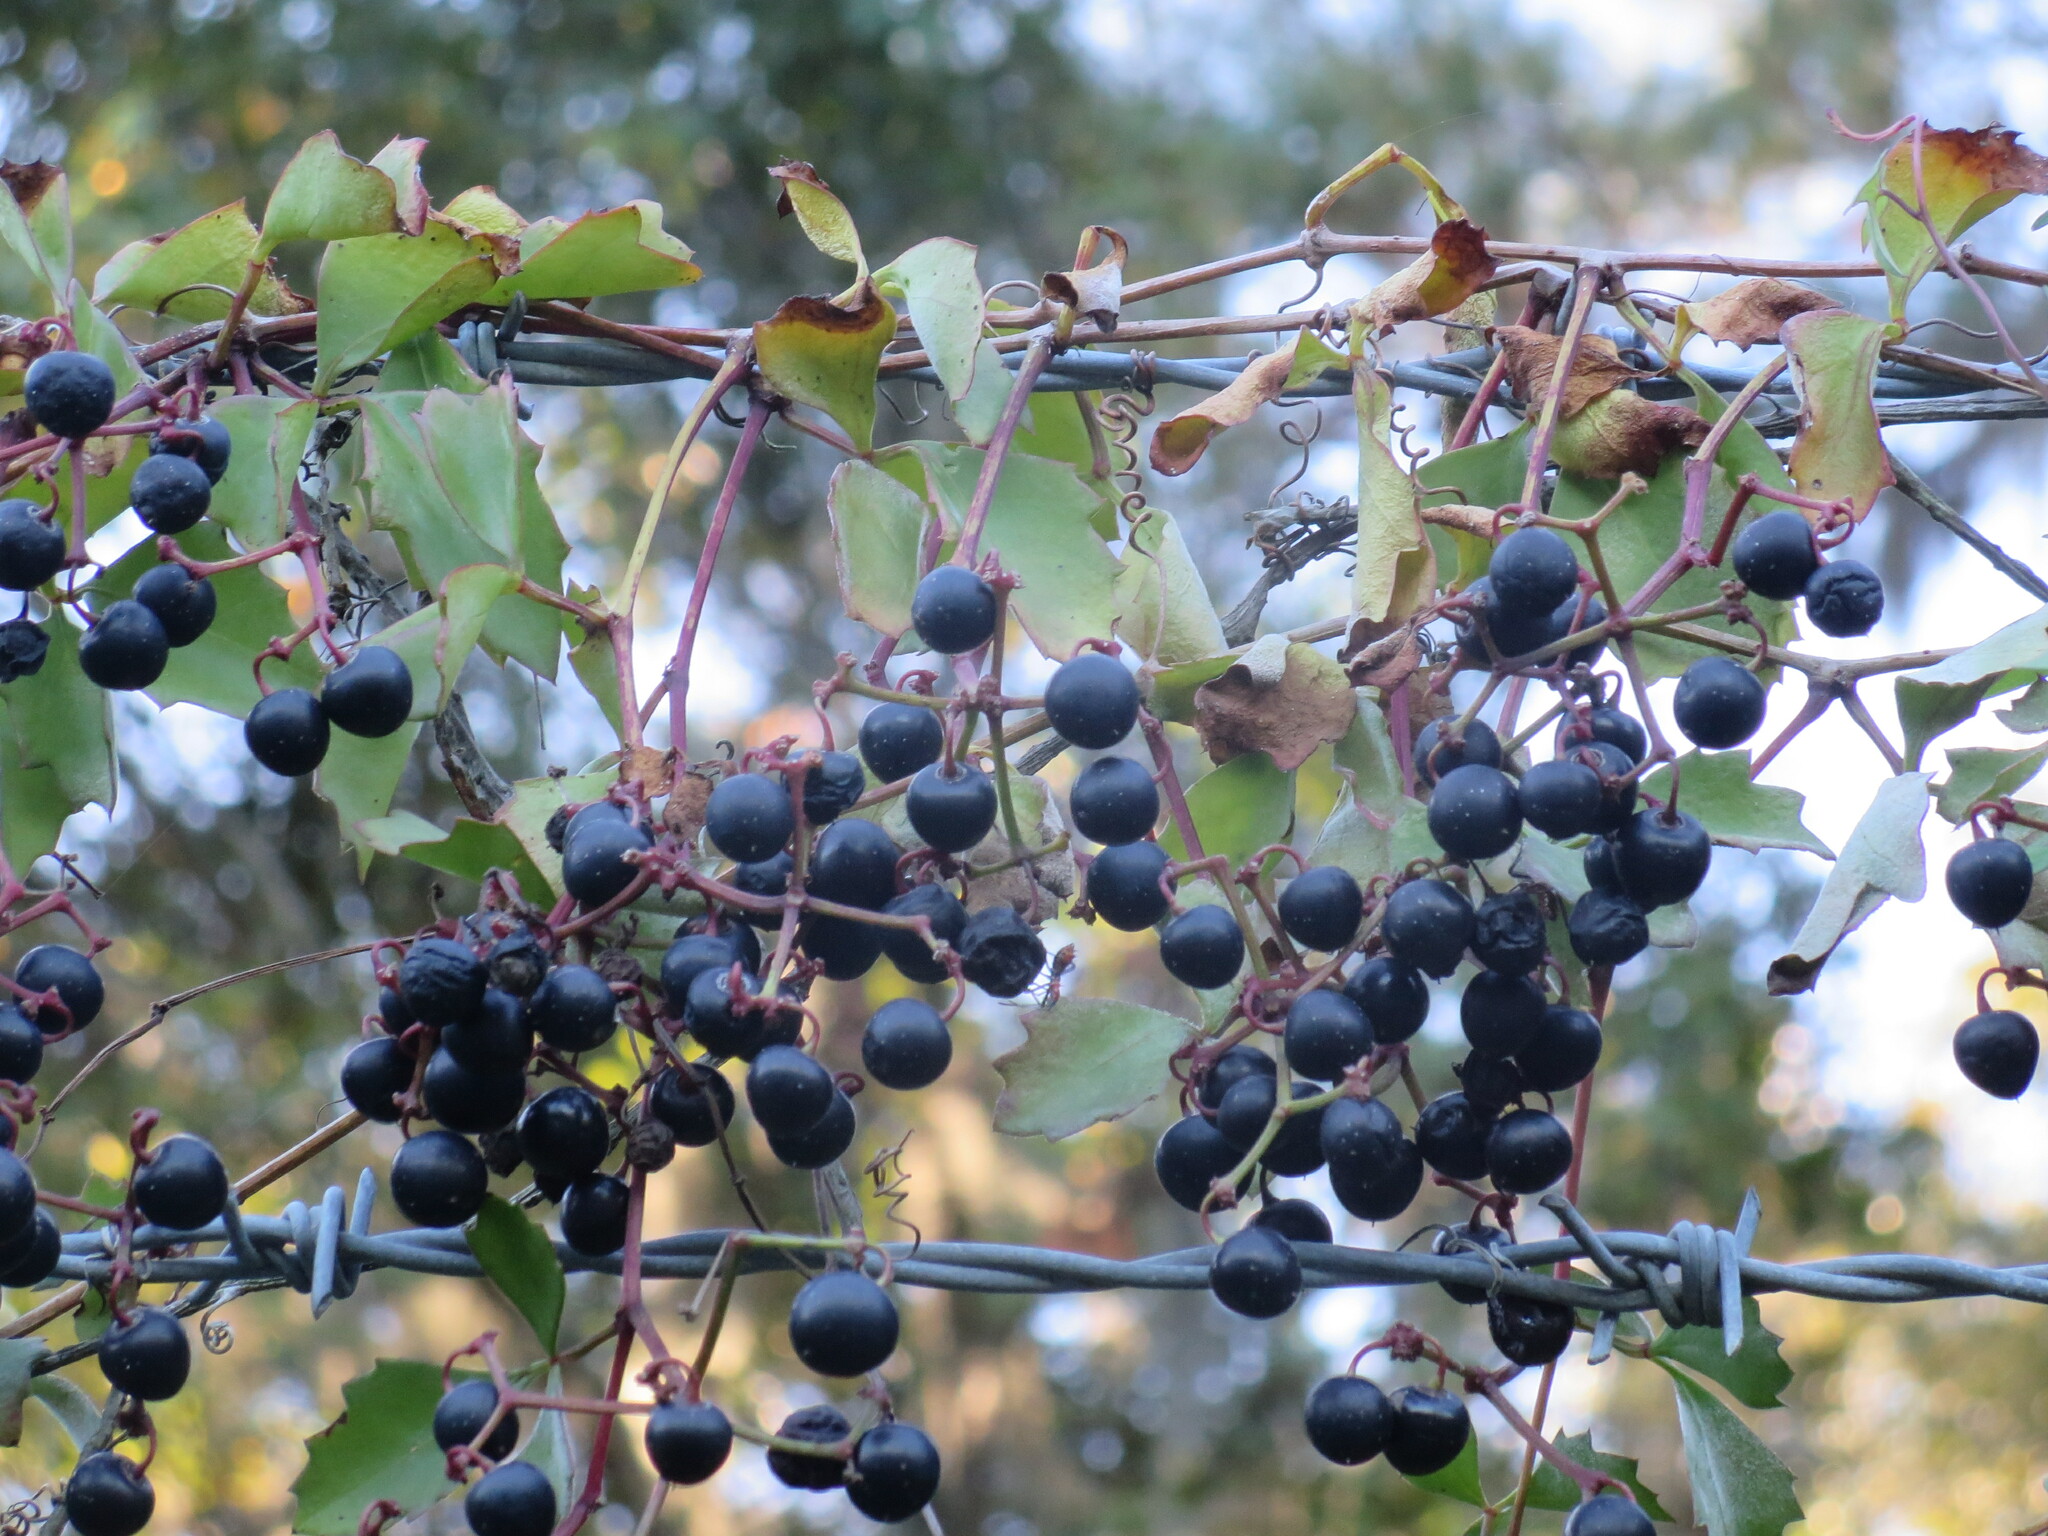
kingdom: Plantae
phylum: Tracheophyta
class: Magnoliopsida
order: Vitales
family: Vitaceae
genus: Cissus
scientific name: Cissus trifoliata
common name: Vine-sorrel
